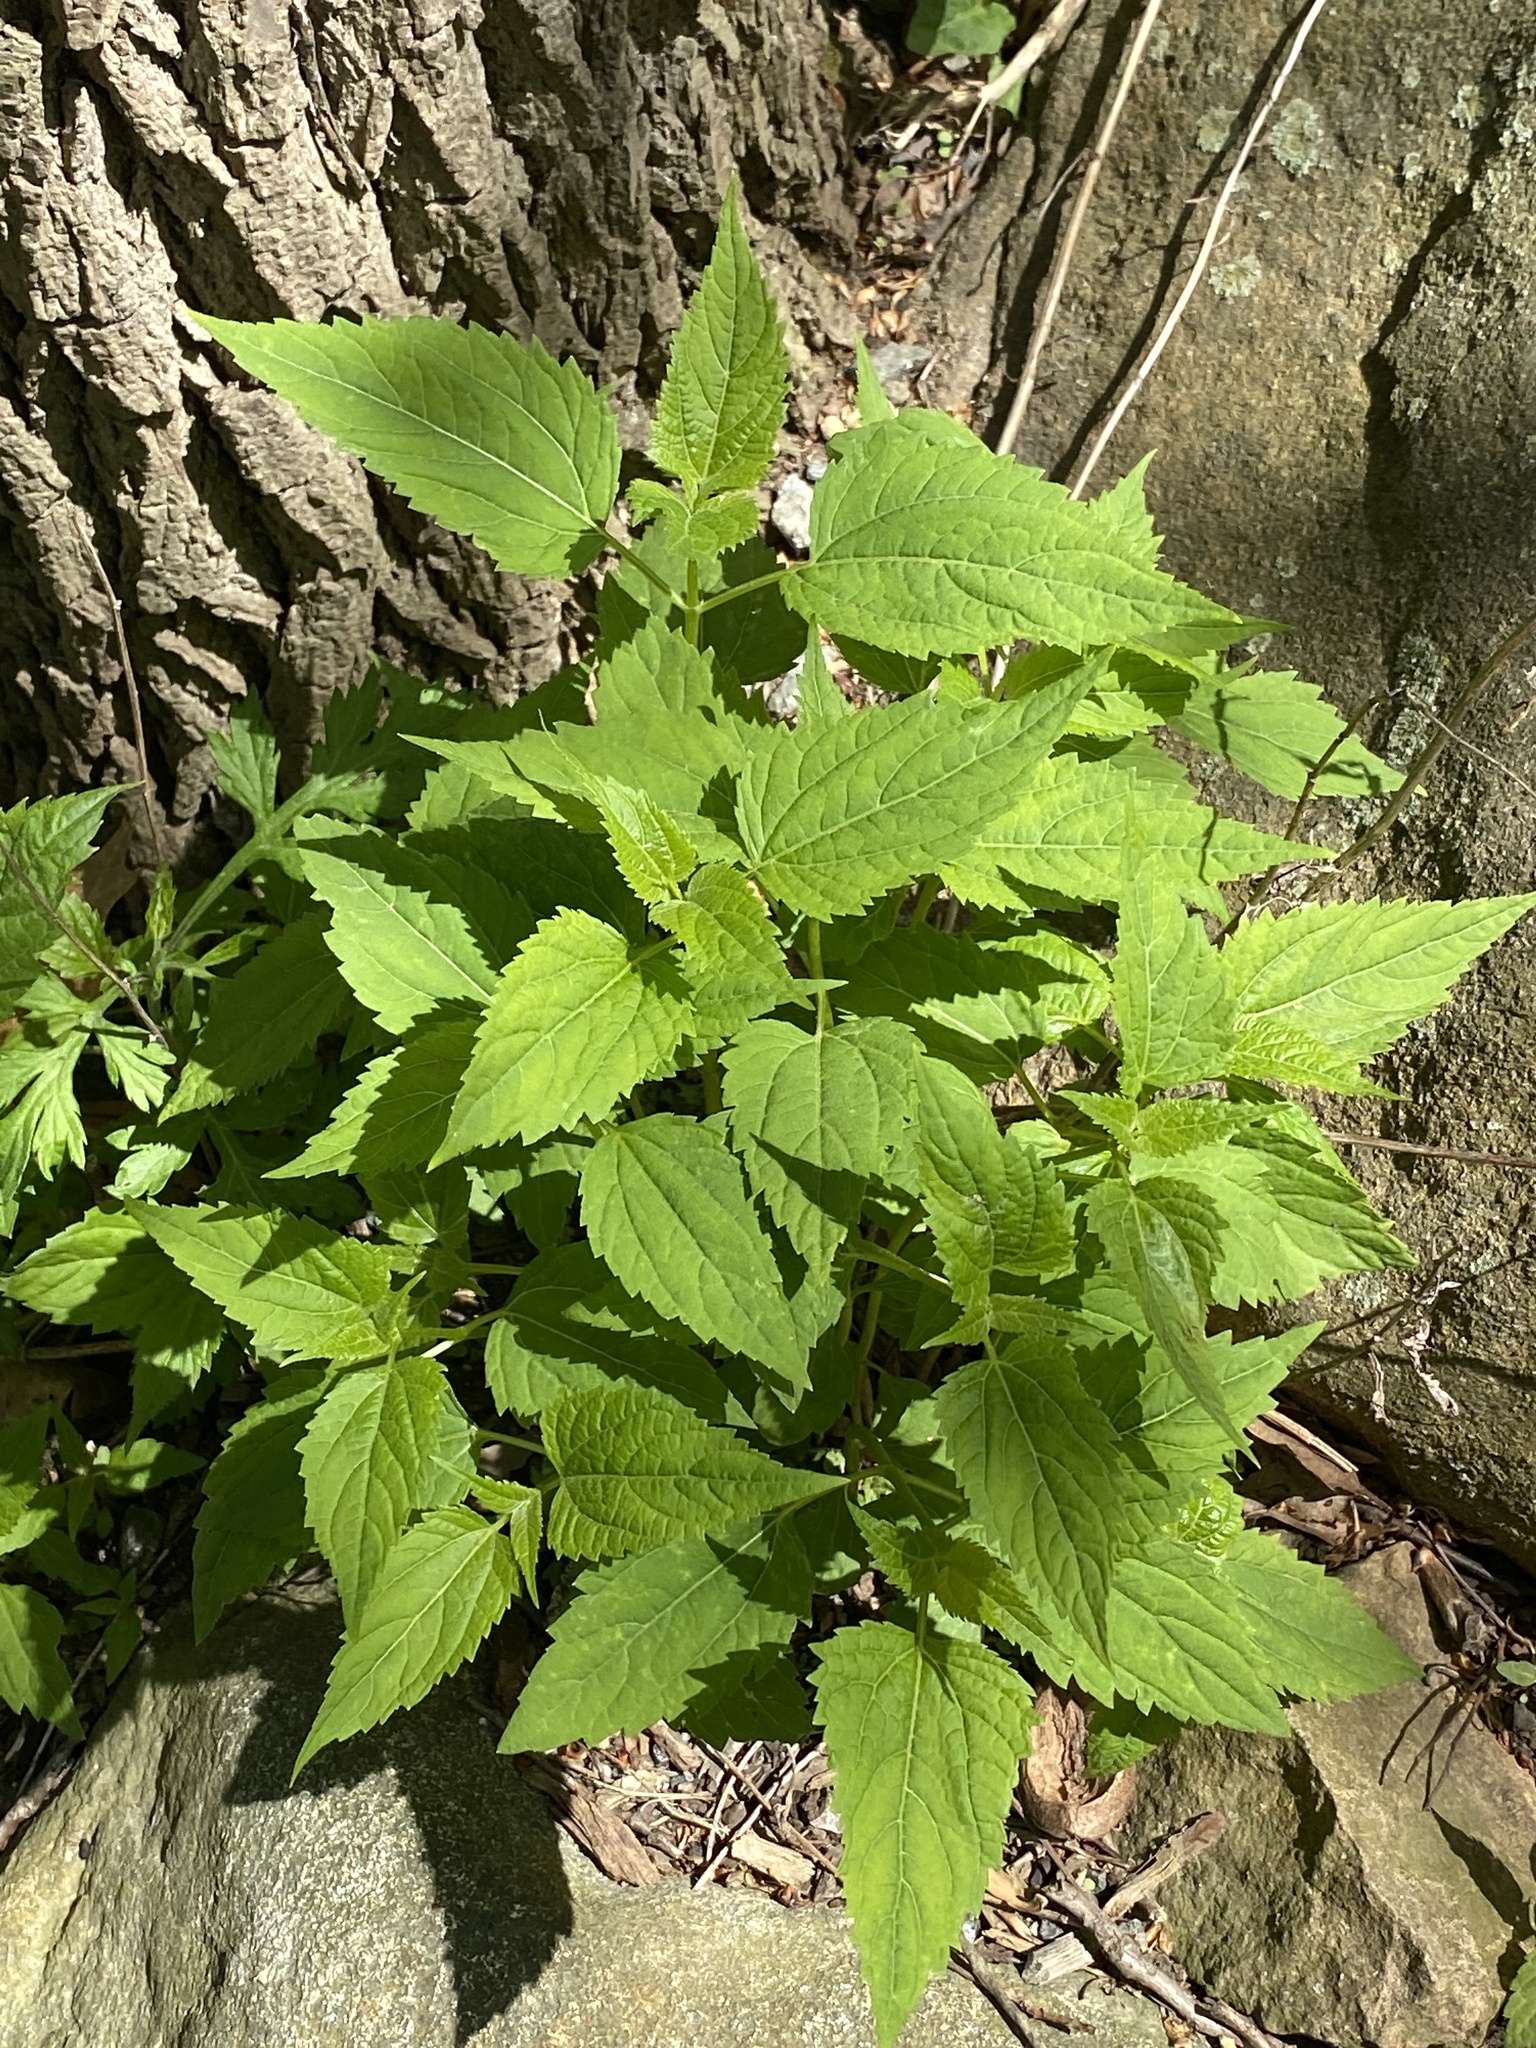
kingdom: Plantae
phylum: Tracheophyta
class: Magnoliopsida
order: Asterales
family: Asteraceae
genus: Ageratina
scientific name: Ageratina altissima
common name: White snakeroot
